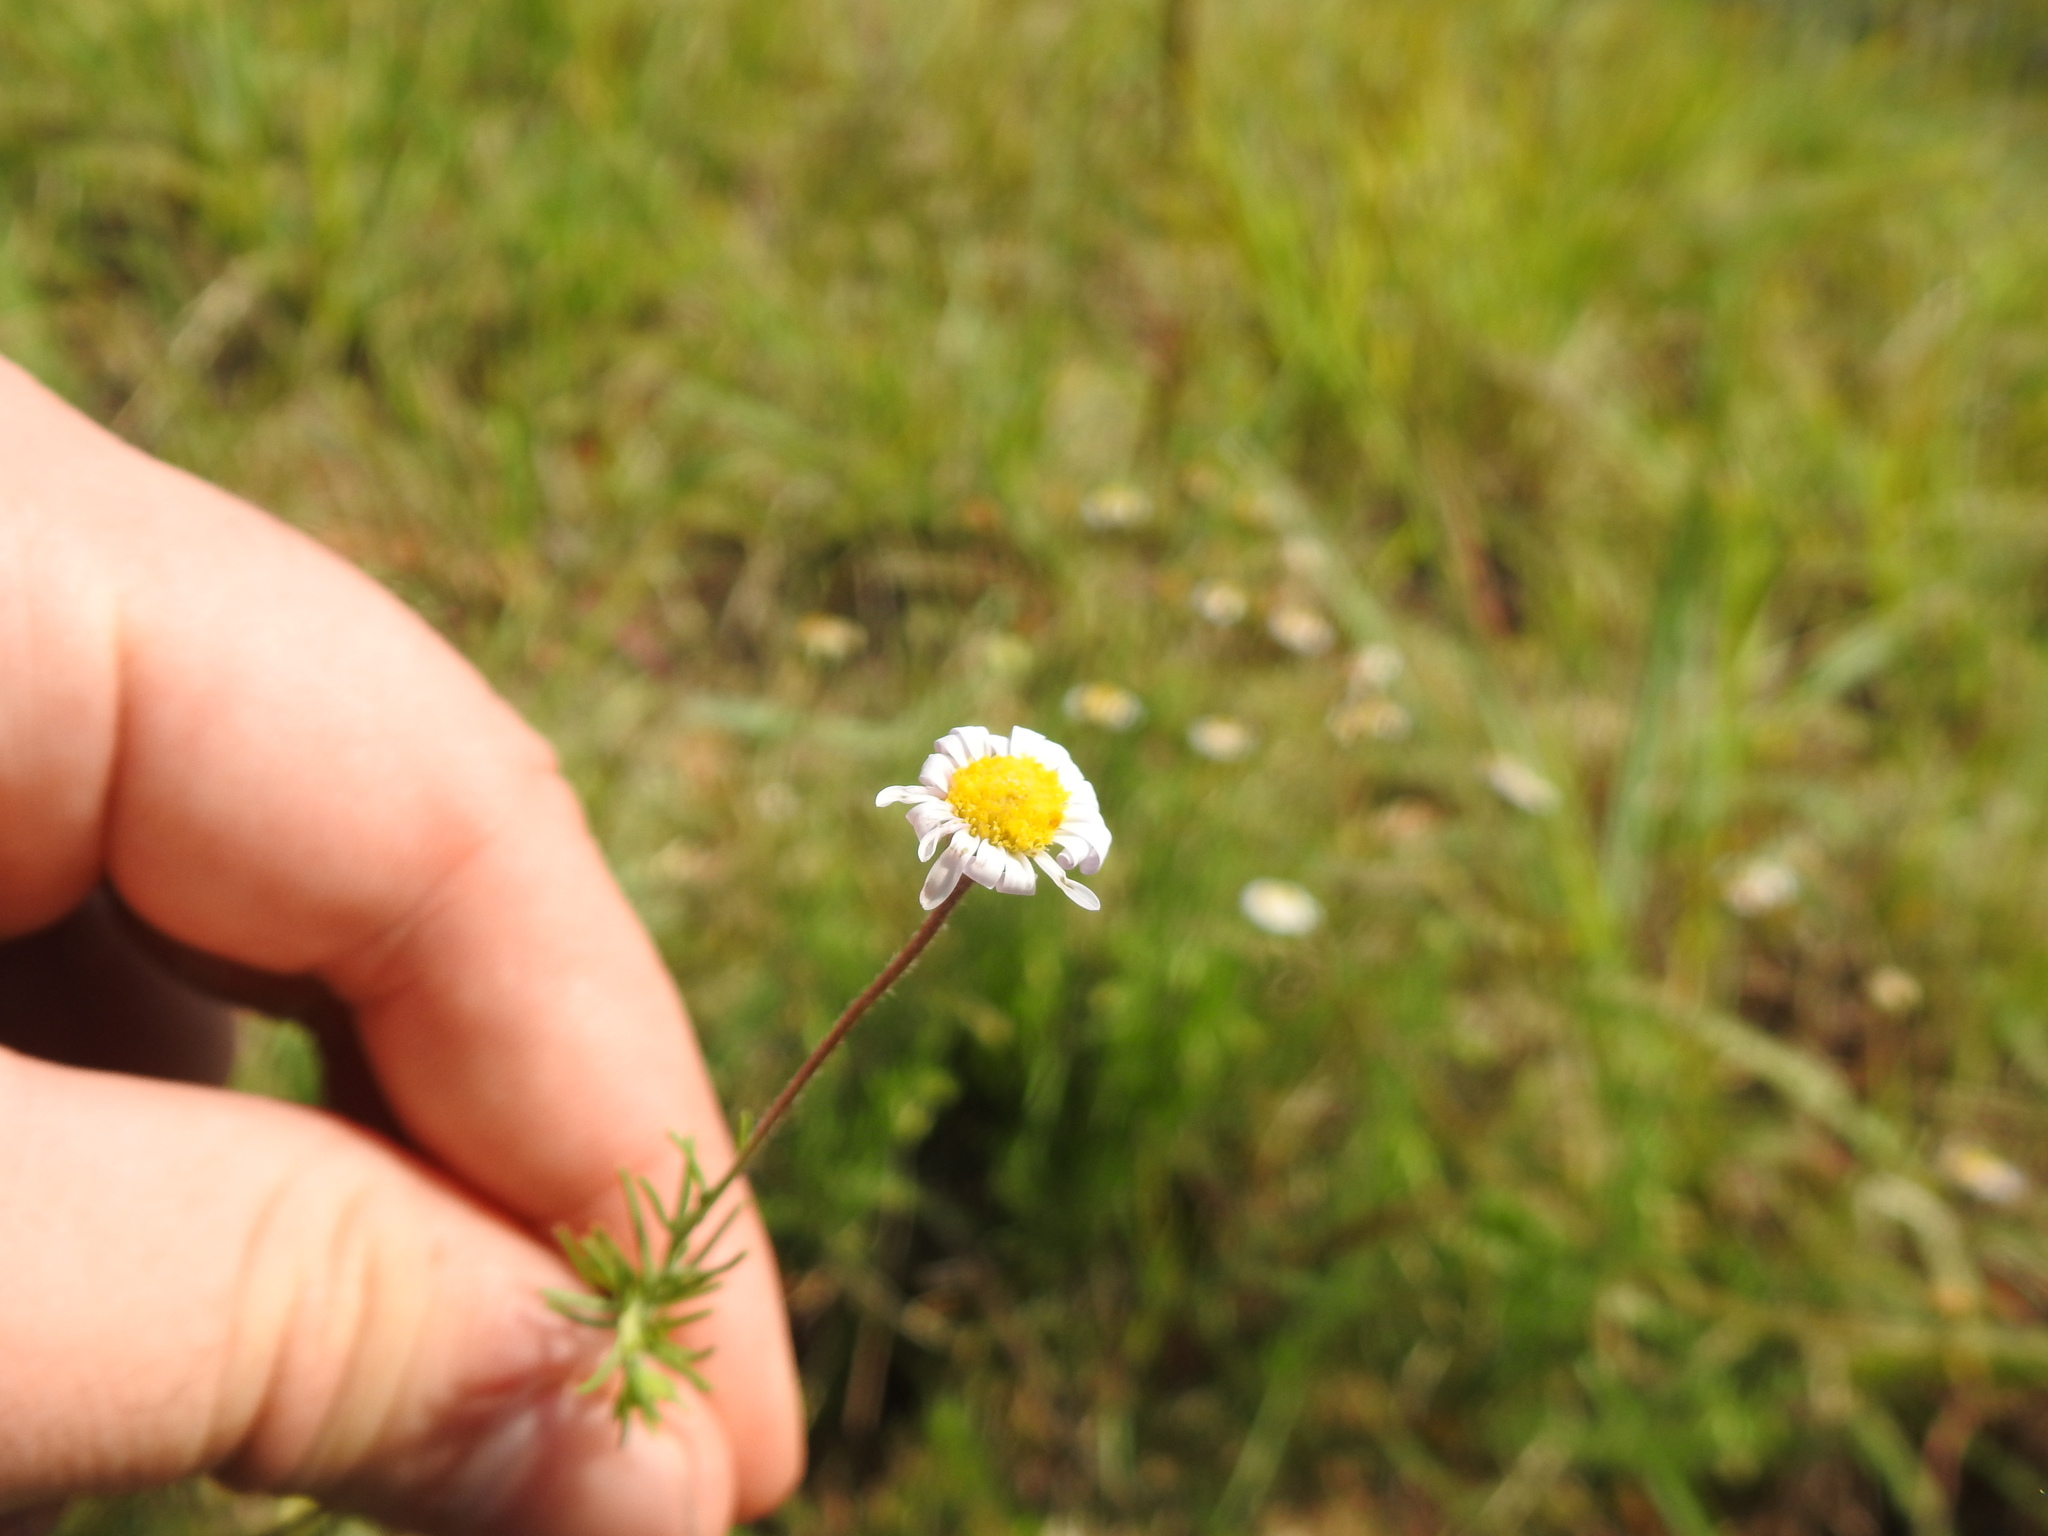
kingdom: Plantae
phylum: Tracheophyta
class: Magnoliopsida
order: Asterales
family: Asteraceae
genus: Felicia
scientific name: Felicia muricata
